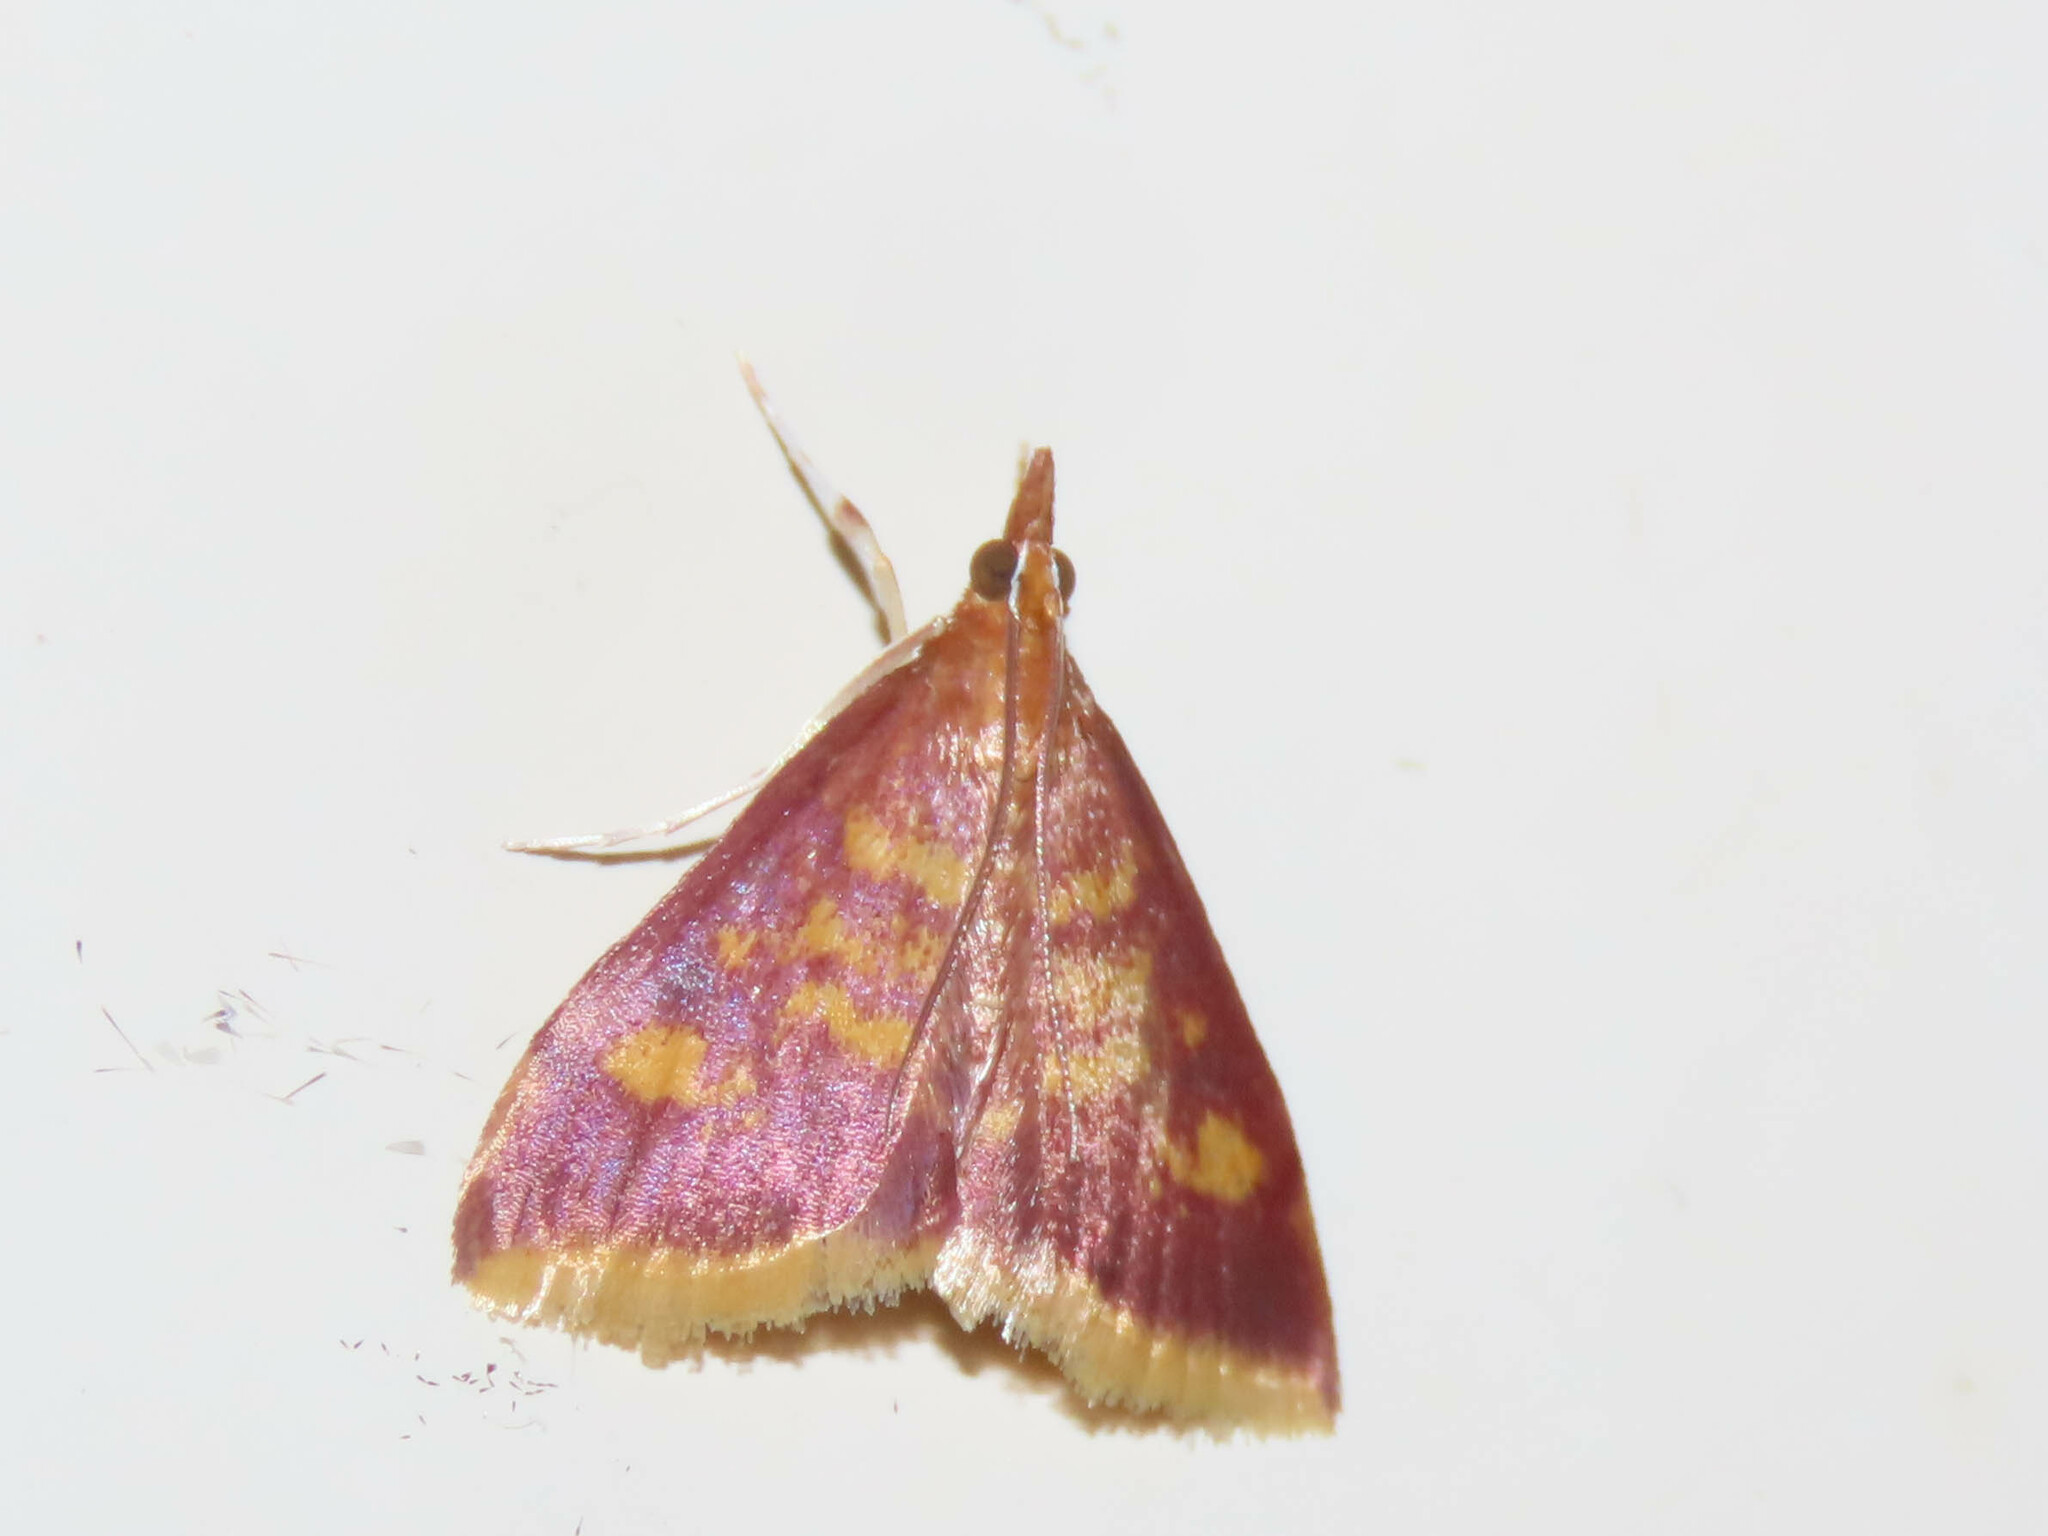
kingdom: Animalia
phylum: Arthropoda
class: Insecta
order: Lepidoptera
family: Crambidae
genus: Pyrausta
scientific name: Pyrausta acrionalis
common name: Mint-loving pyrausta moth
